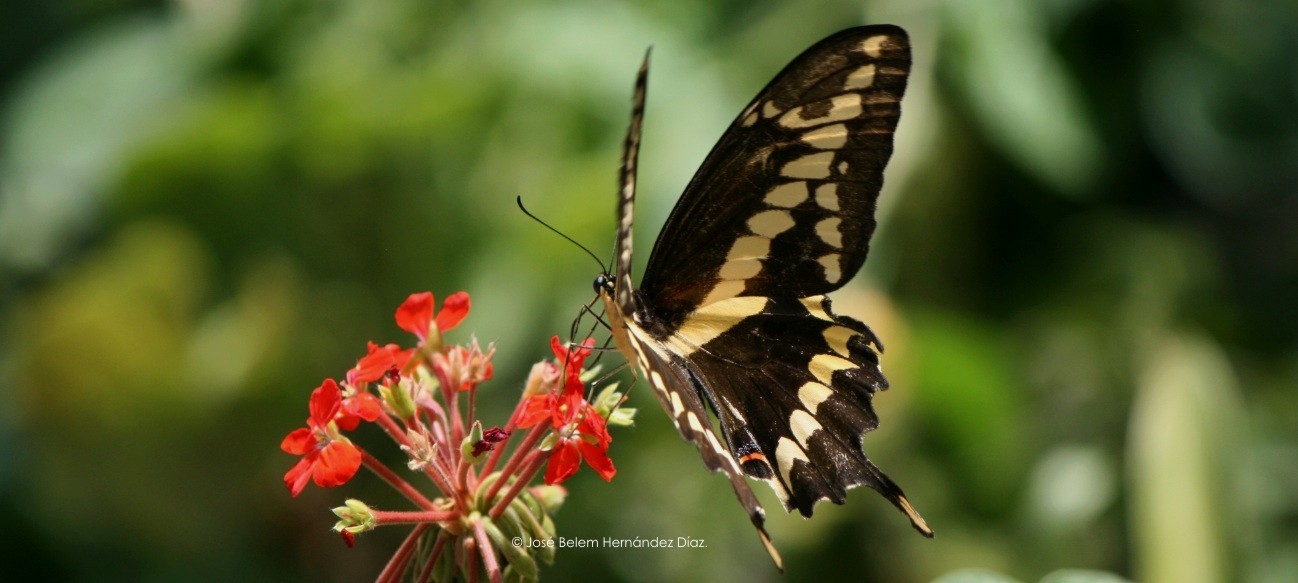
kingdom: Animalia
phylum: Arthropoda
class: Insecta
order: Lepidoptera
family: Papilionidae
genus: Papilio
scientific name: Papilio rumiko
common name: Western giant swallowtail
